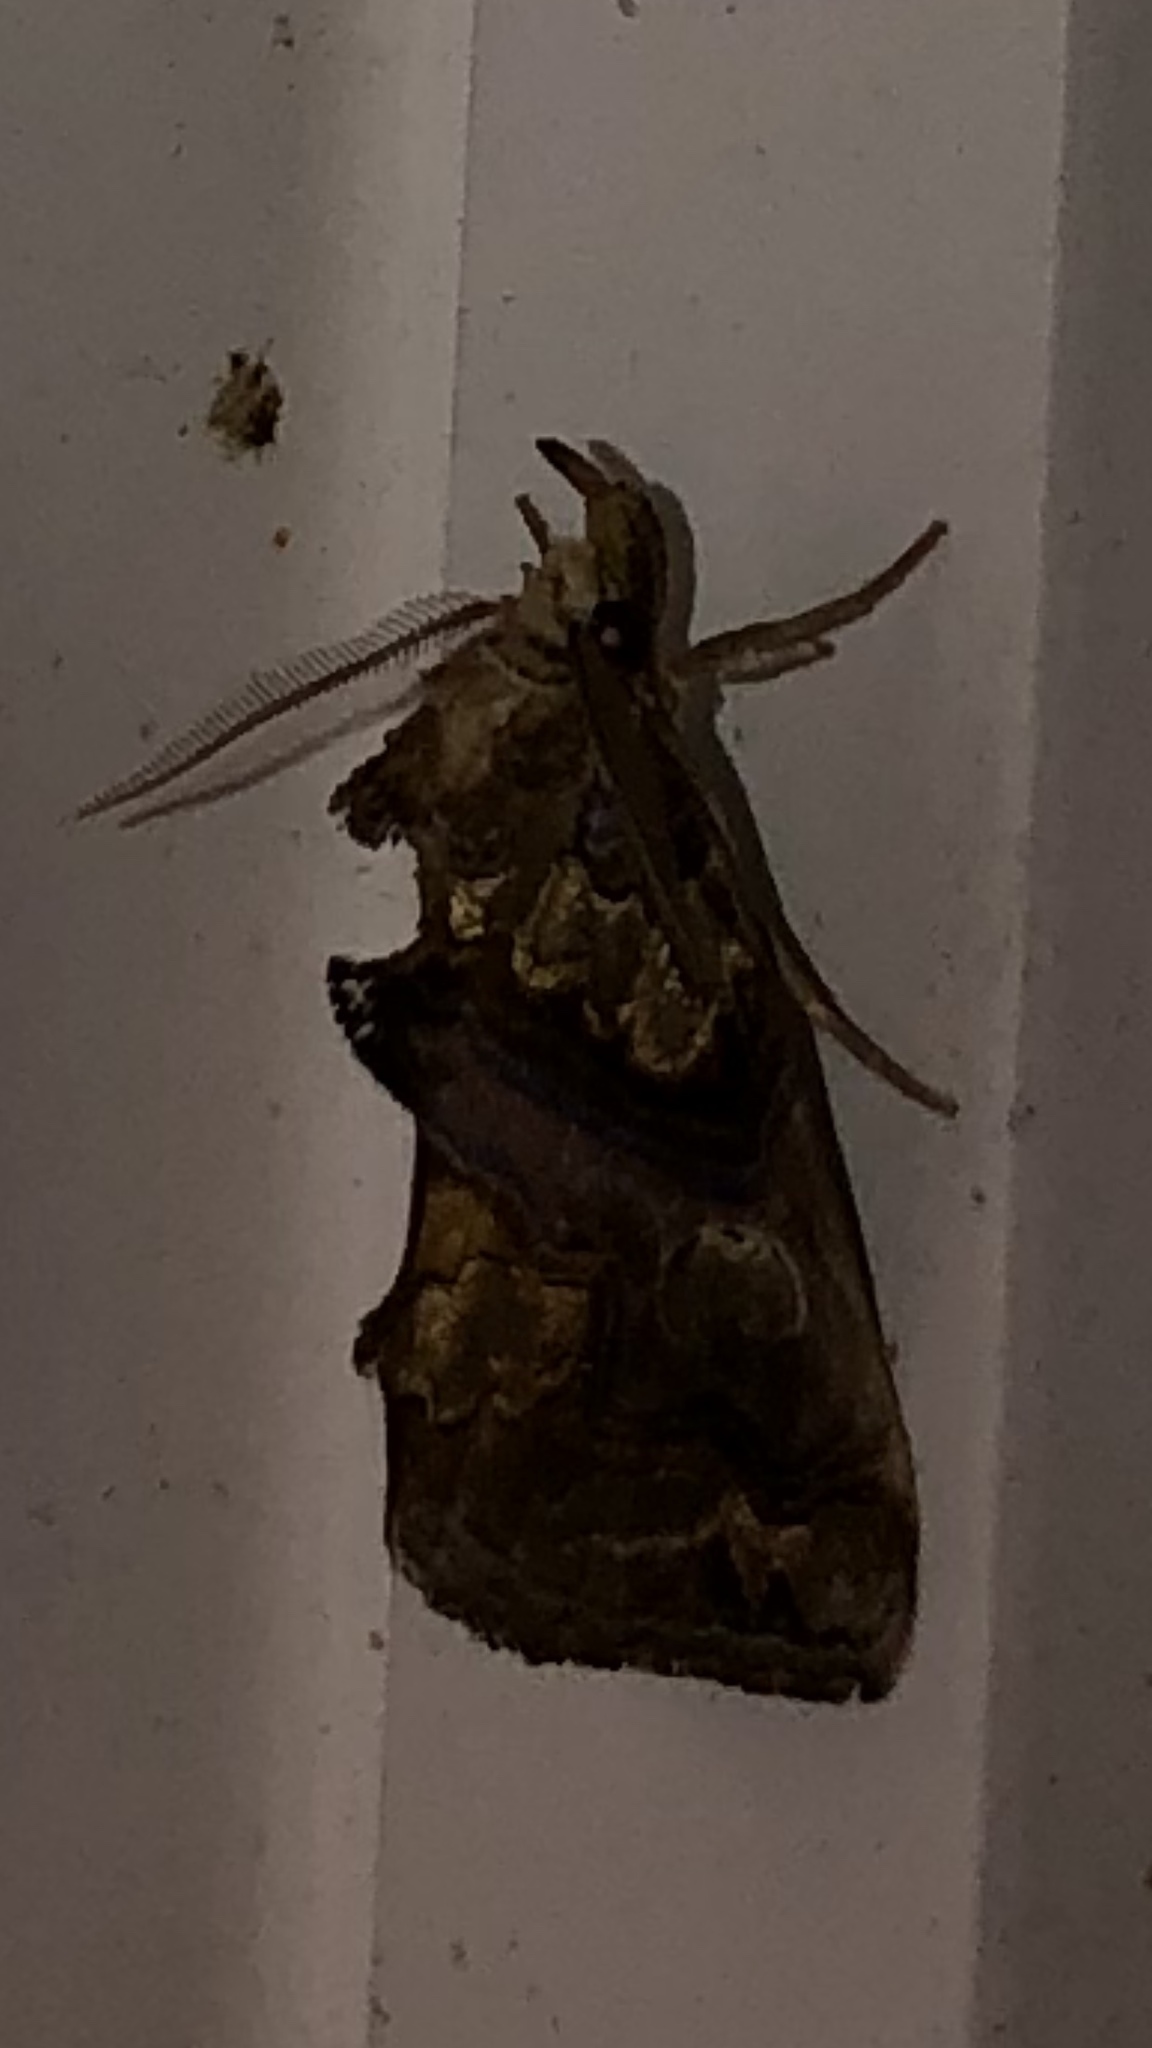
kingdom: Animalia
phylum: Arthropoda
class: Insecta
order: Lepidoptera
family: Erebidae
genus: Plusiodonta
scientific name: Plusiodonta compressipalpis
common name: Moonseed moth
